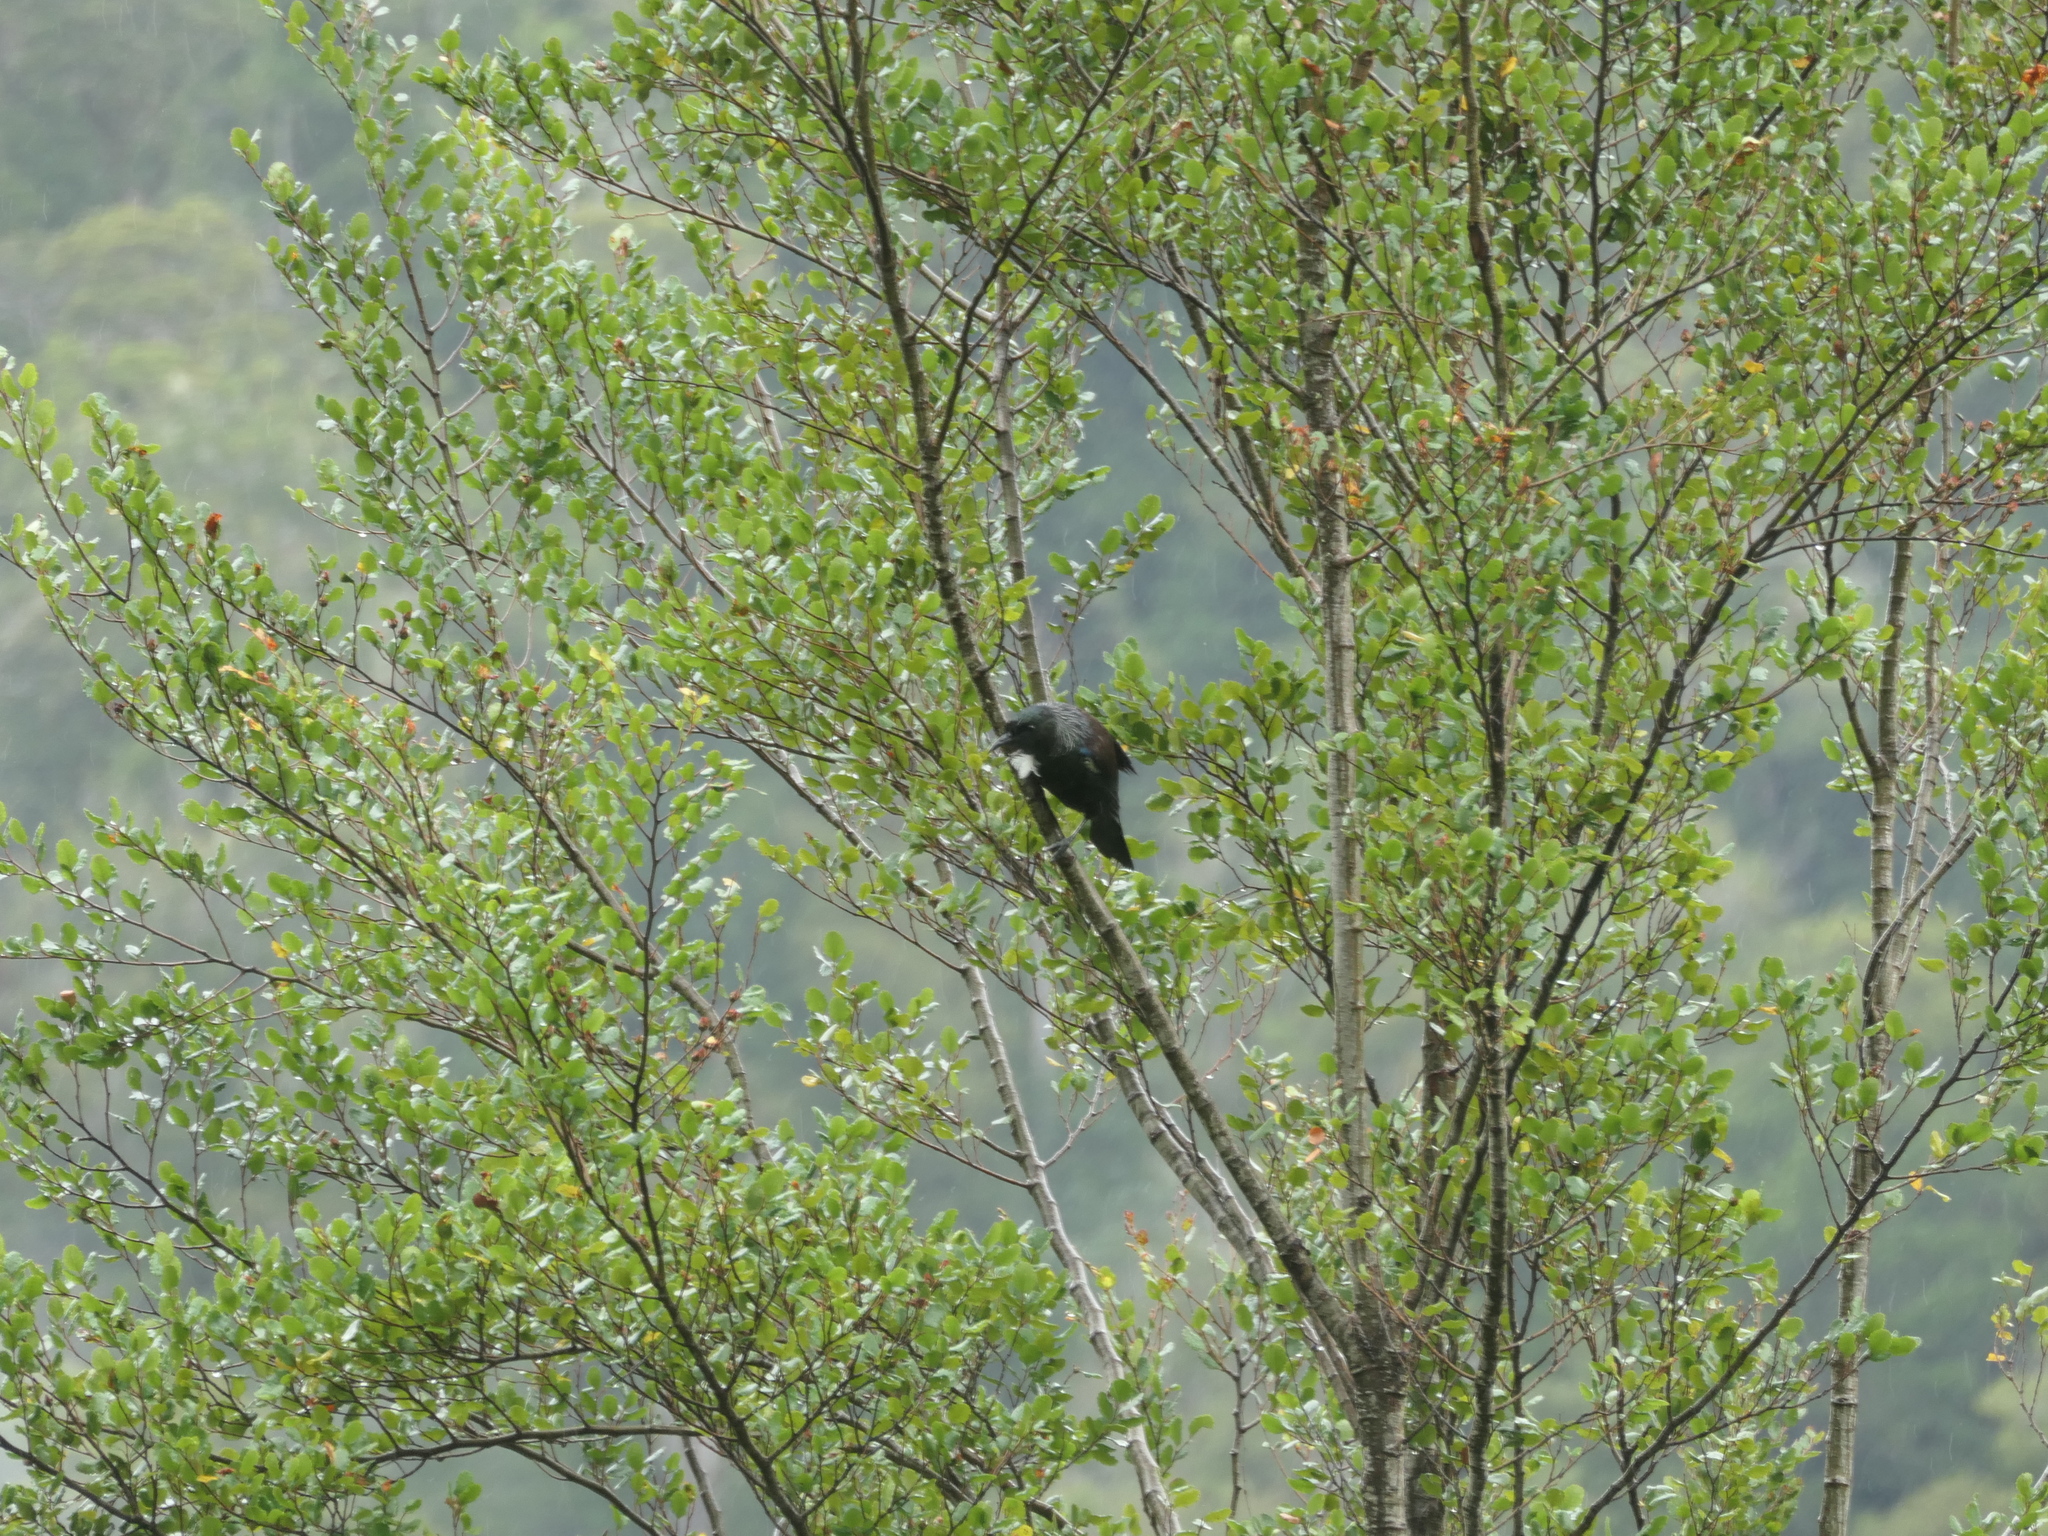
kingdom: Animalia
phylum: Chordata
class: Aves
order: Passeriformes
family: Meliphagidae
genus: Prosthemadera
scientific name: Prosthemadera novaeseelandiae
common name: Tui
